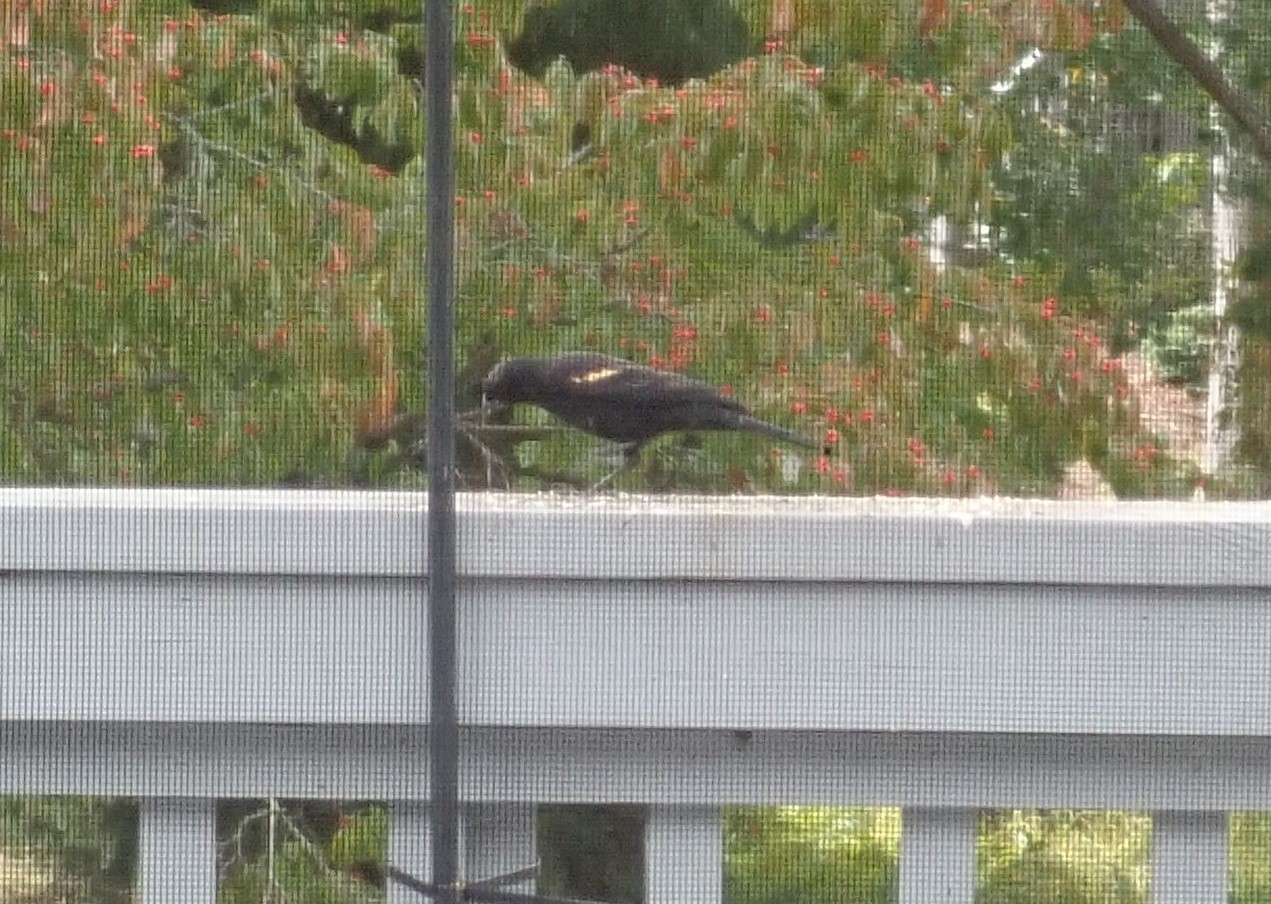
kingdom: Animalia
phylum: Chordata
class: Aves
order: Passeriformes
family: Icteridae
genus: Agelaius
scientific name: Agelaius phoeniceus
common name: Red-winged blackbird
